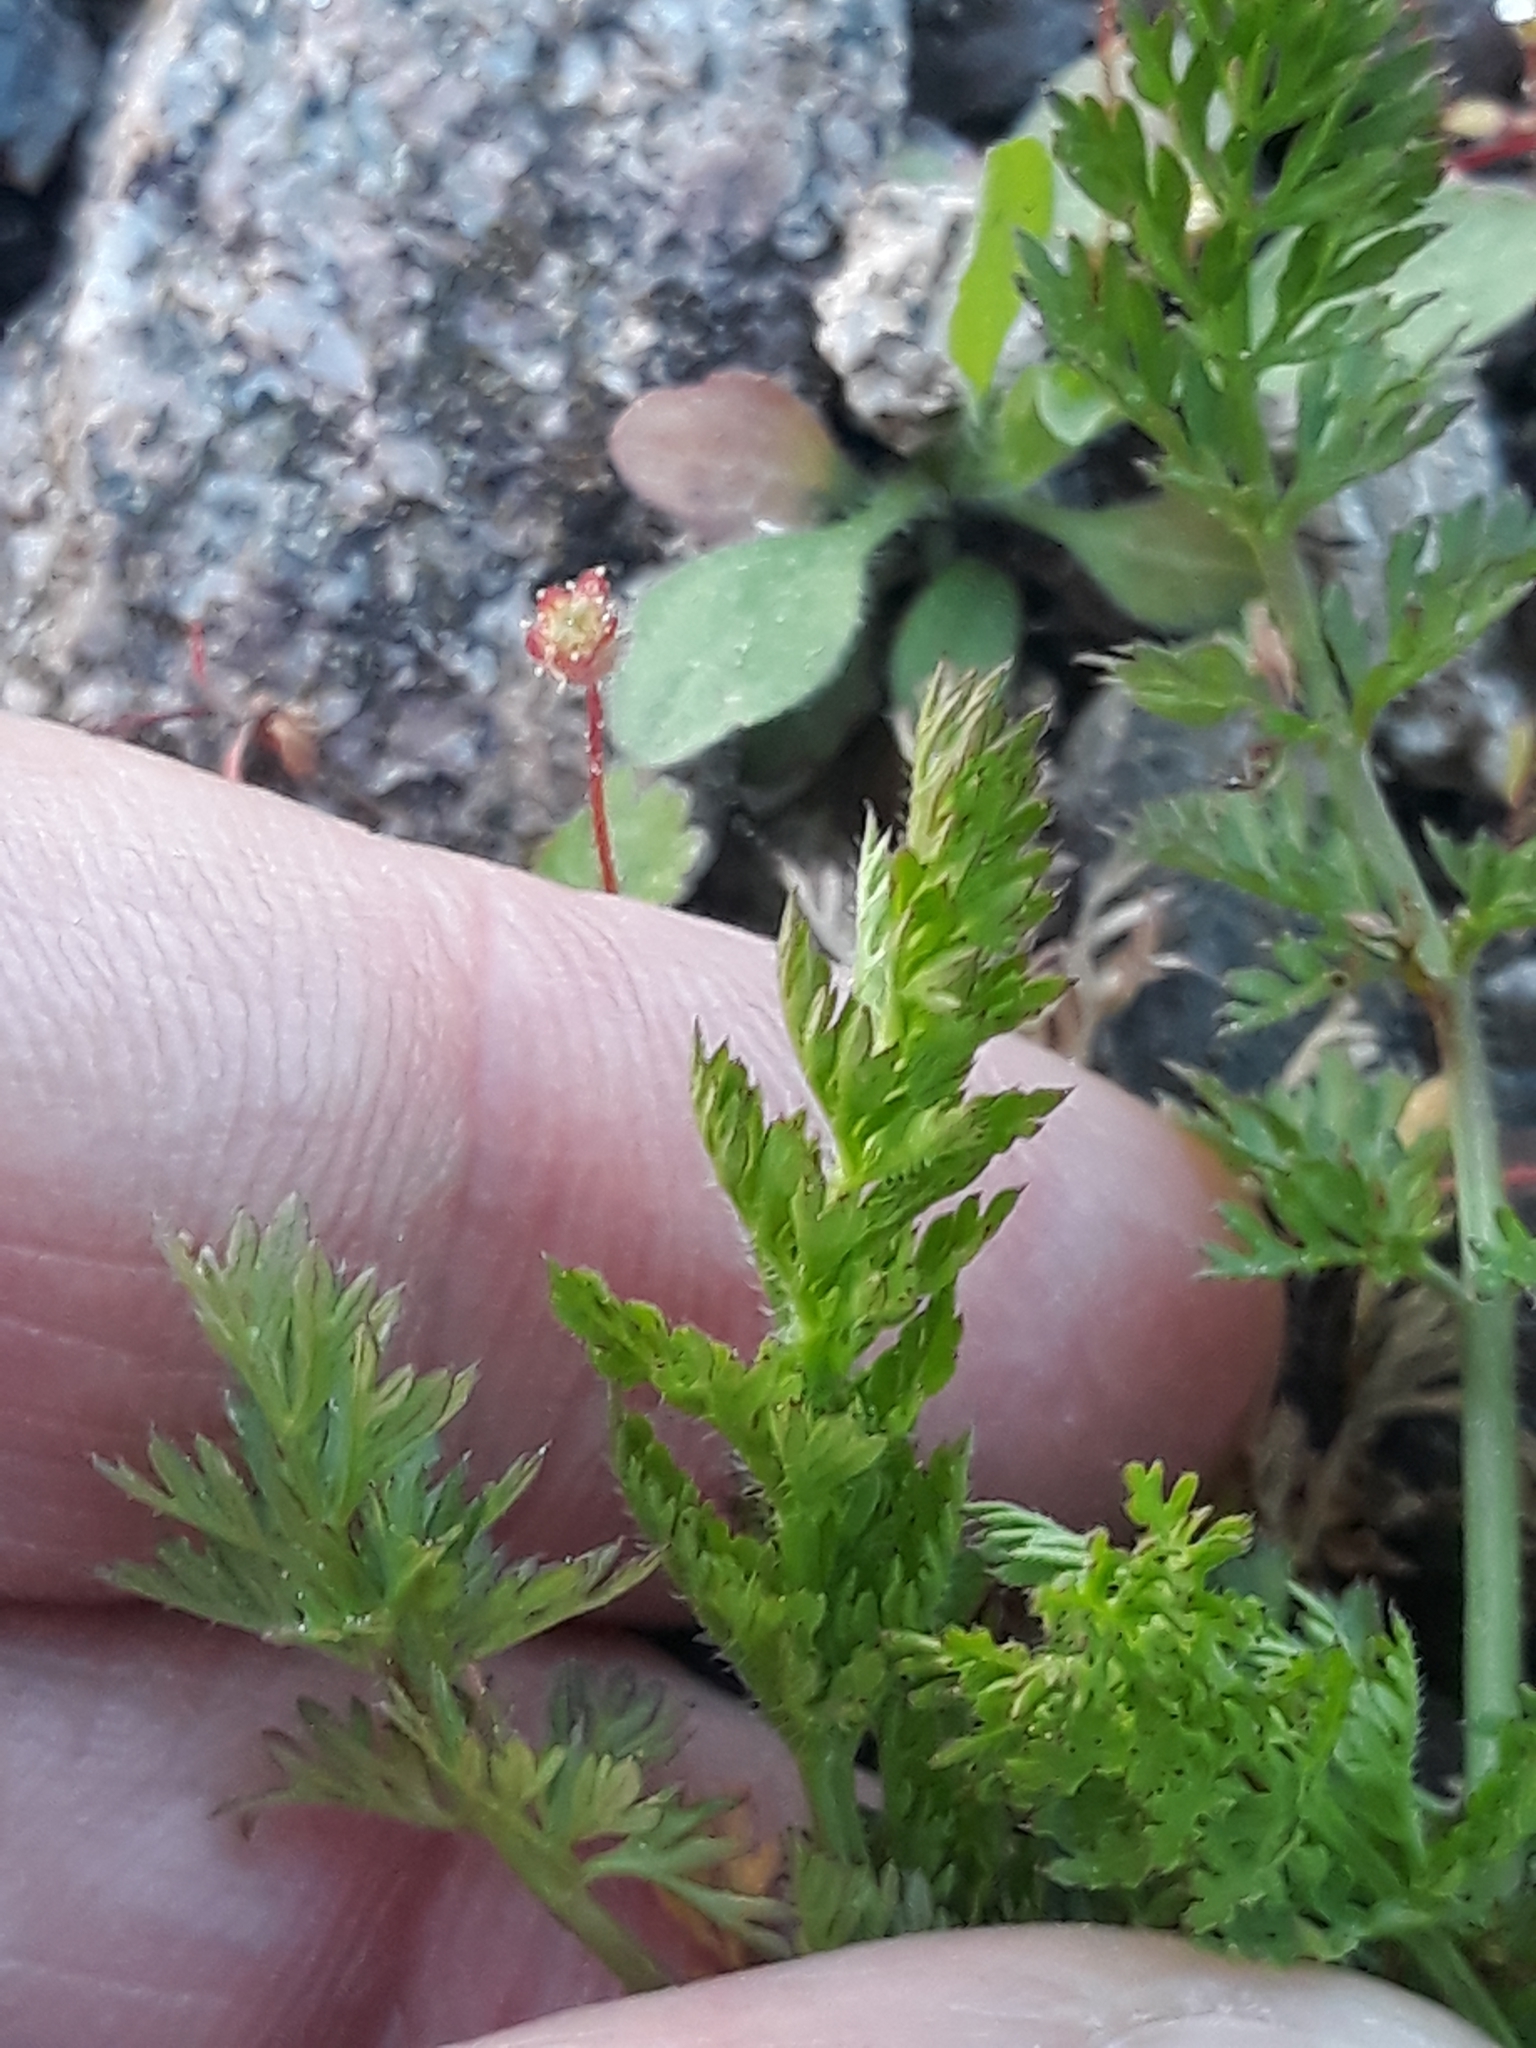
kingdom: Plantae
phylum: Tracheophyta
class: Magnoliopsida
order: Geraniales
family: Geraniaceae
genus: Erodium
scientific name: Erodium cicutarium
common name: Common stork's-bill
